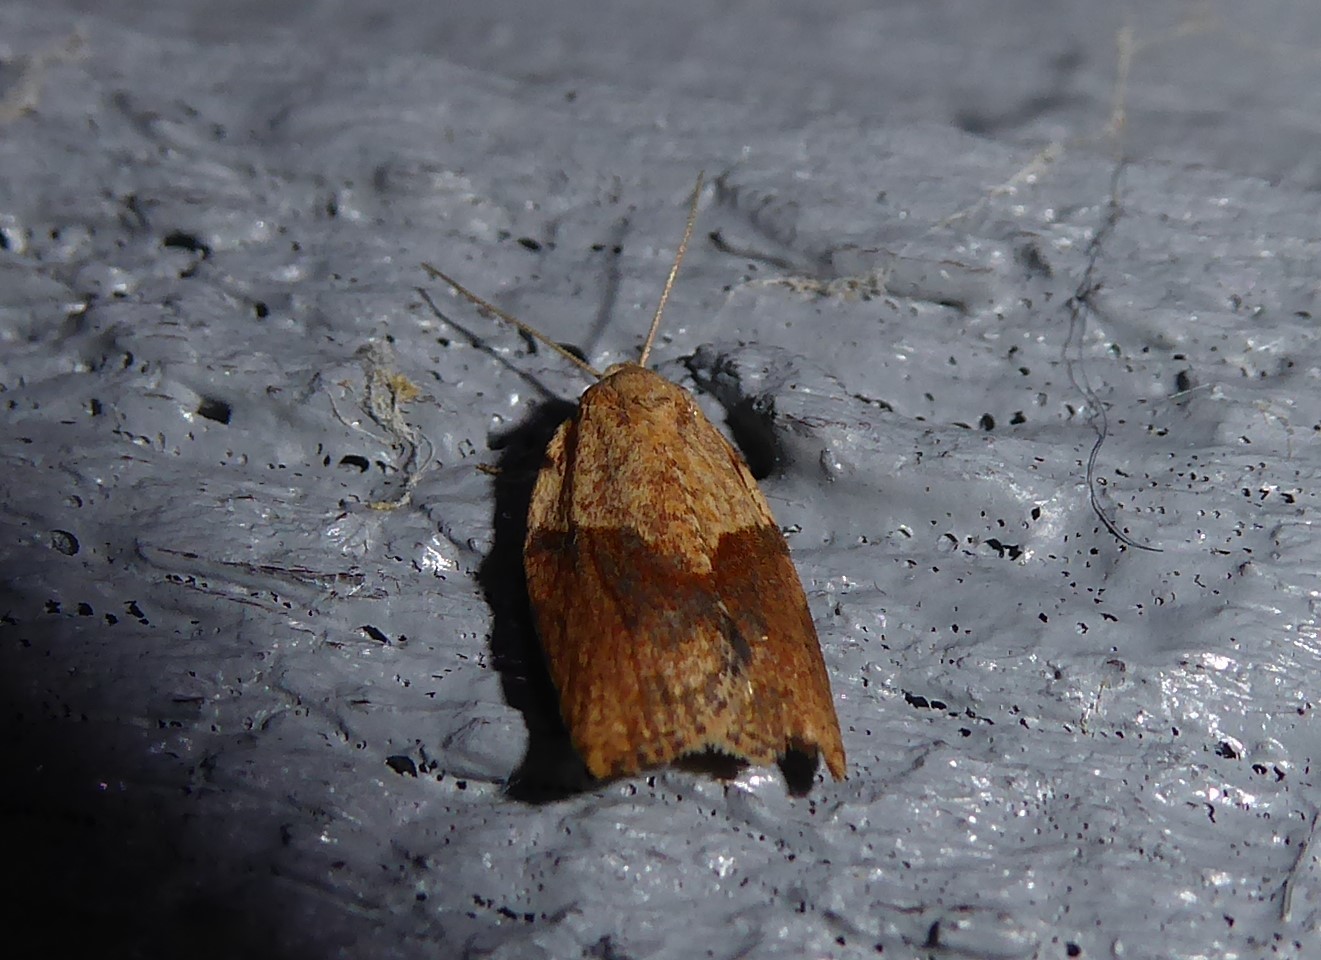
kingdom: Animalia
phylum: Arthropoda
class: Insecta
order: Lepidoptera
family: Tortricidae
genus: Epiphyas
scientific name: Epiphyas postvittana
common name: Light brown apple moth
